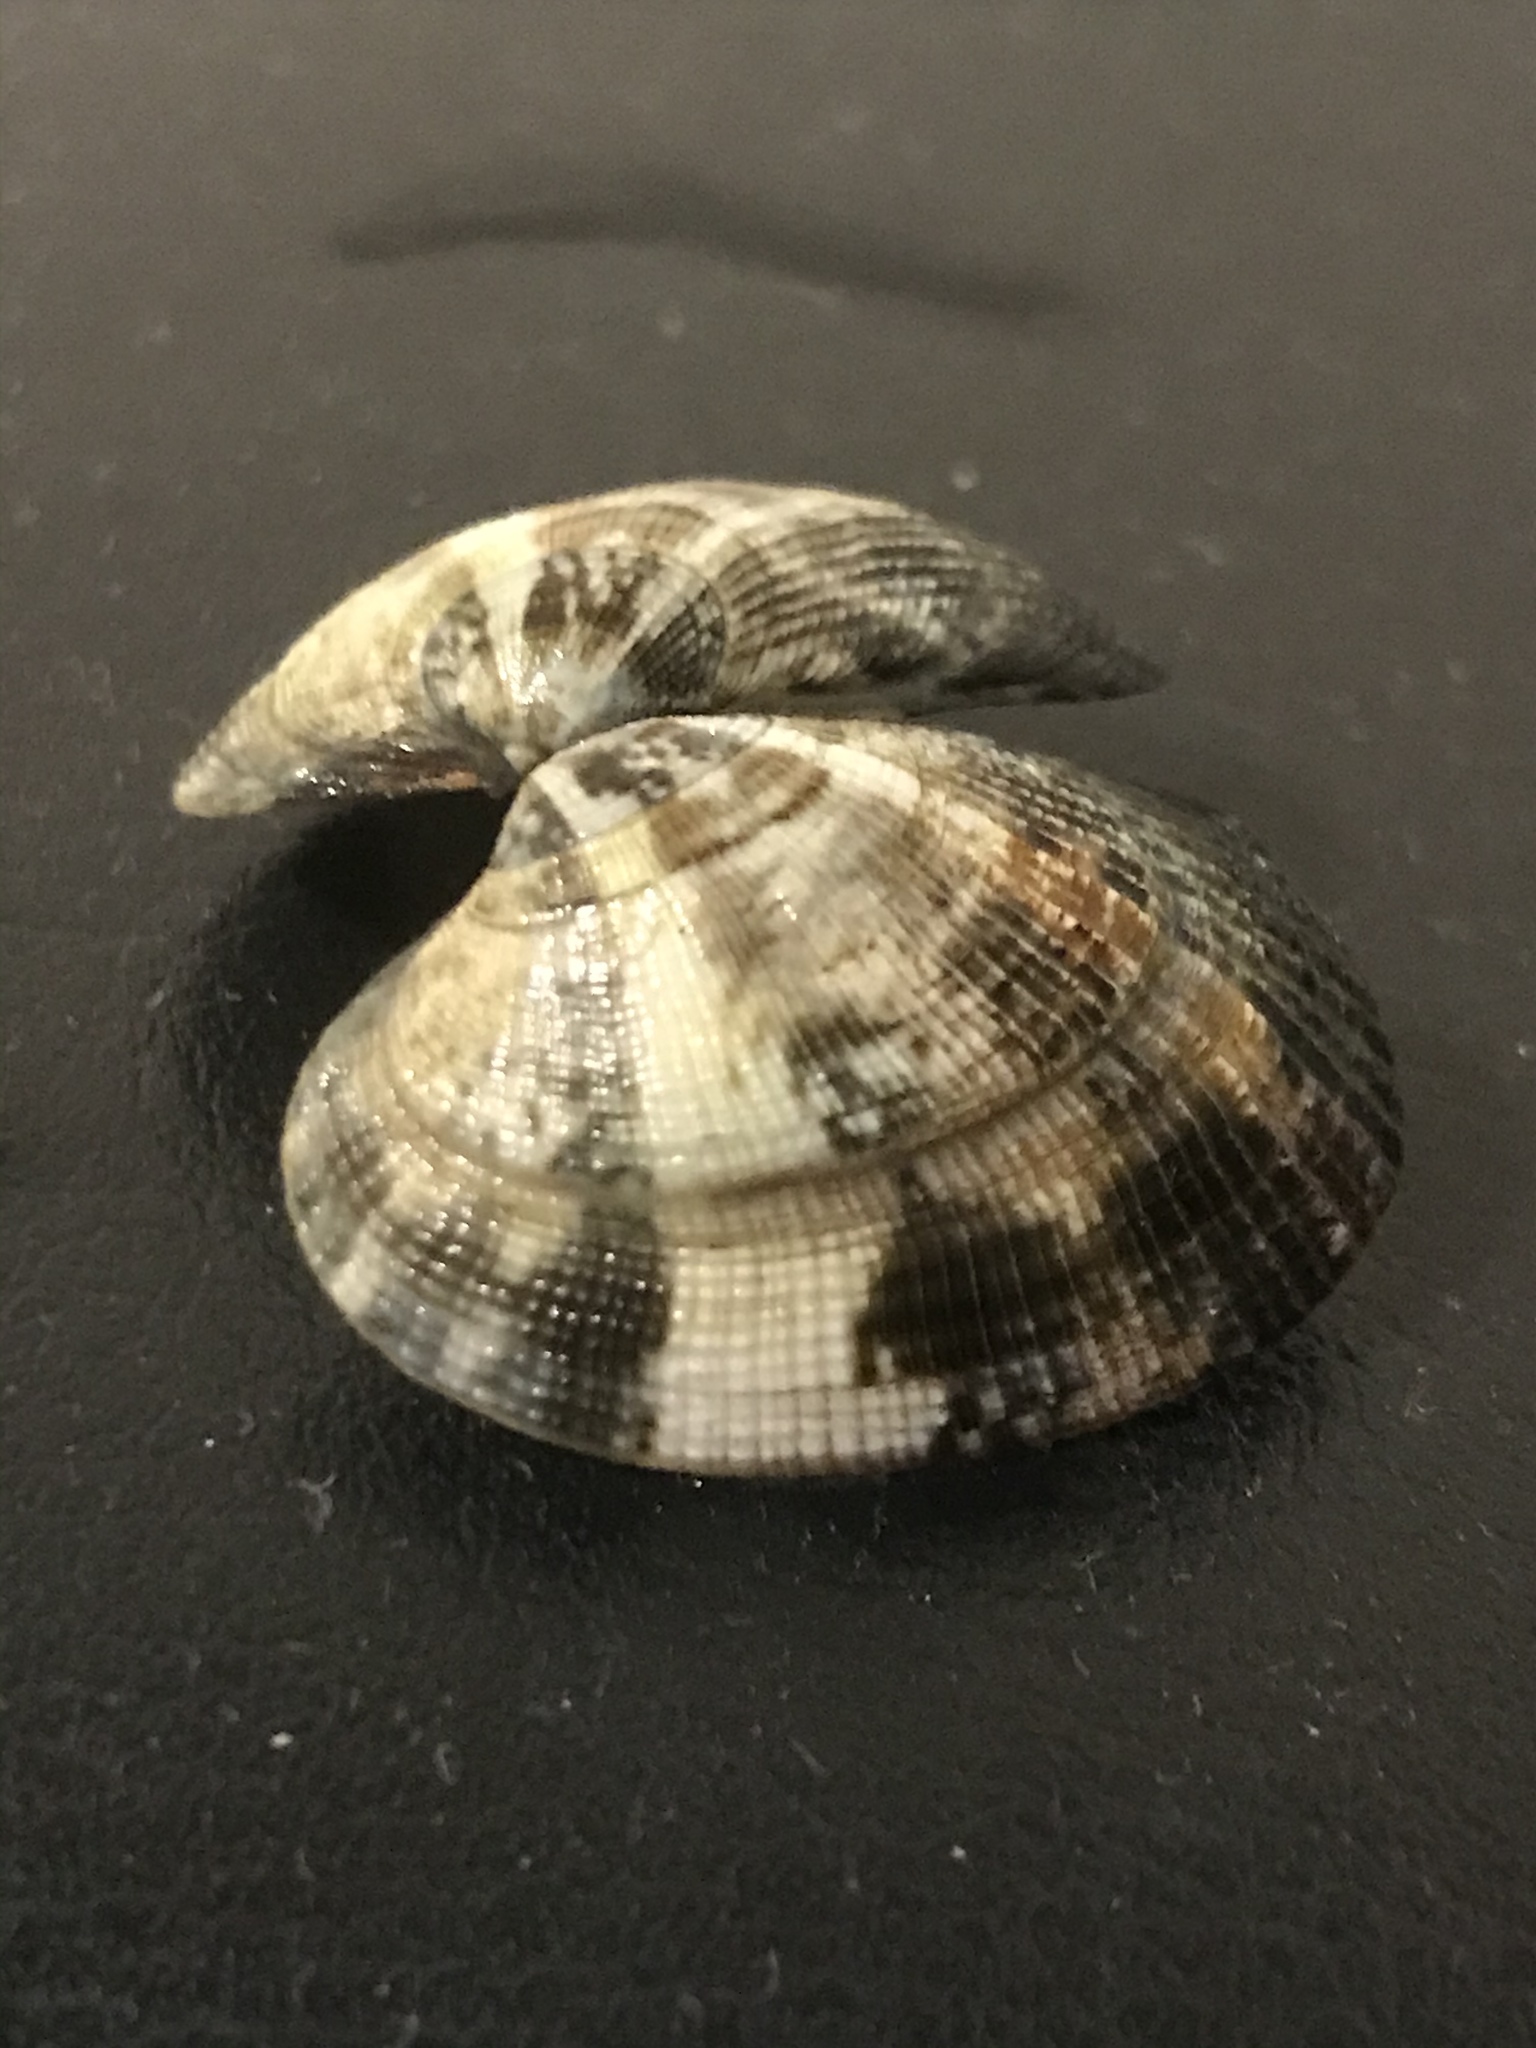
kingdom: Animalia
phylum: Mollusca
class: Bivalvia
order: Venerida
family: Veneridae
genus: Ruditapes
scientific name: Ruditapes philippinarum
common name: Manila clam
